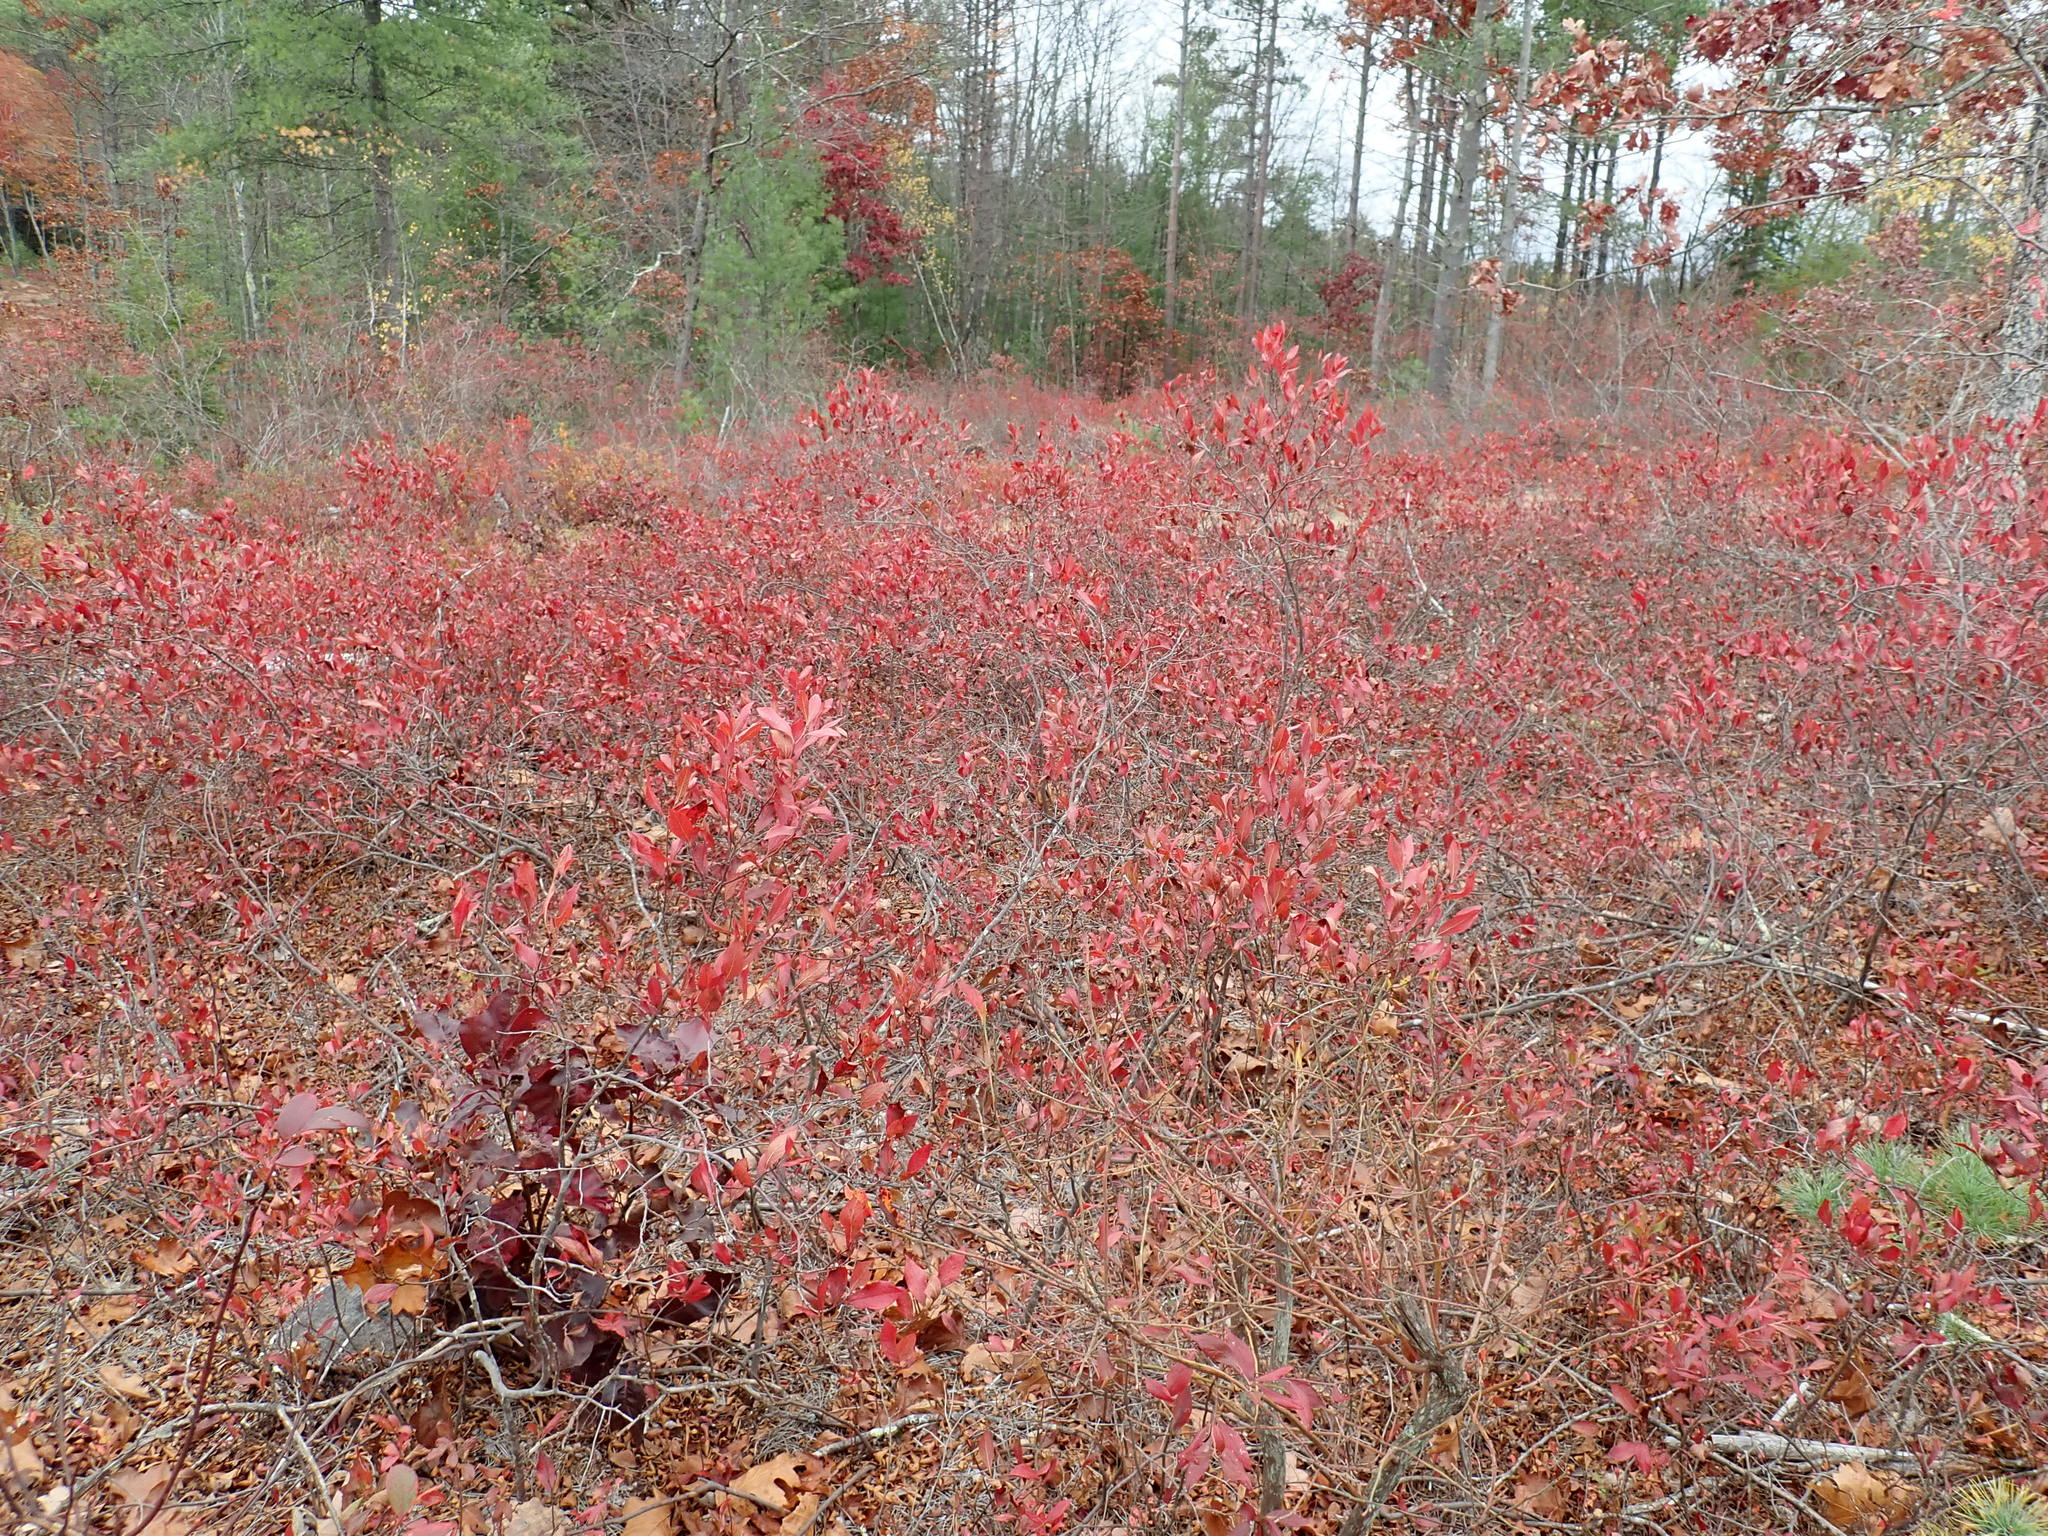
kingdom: Plantae
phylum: Tracheophyta
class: Magnoliopsida
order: Ericales
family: Ericaceae
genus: Gaylussacia
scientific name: Gaylussacia baccata
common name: Black huckleberry
